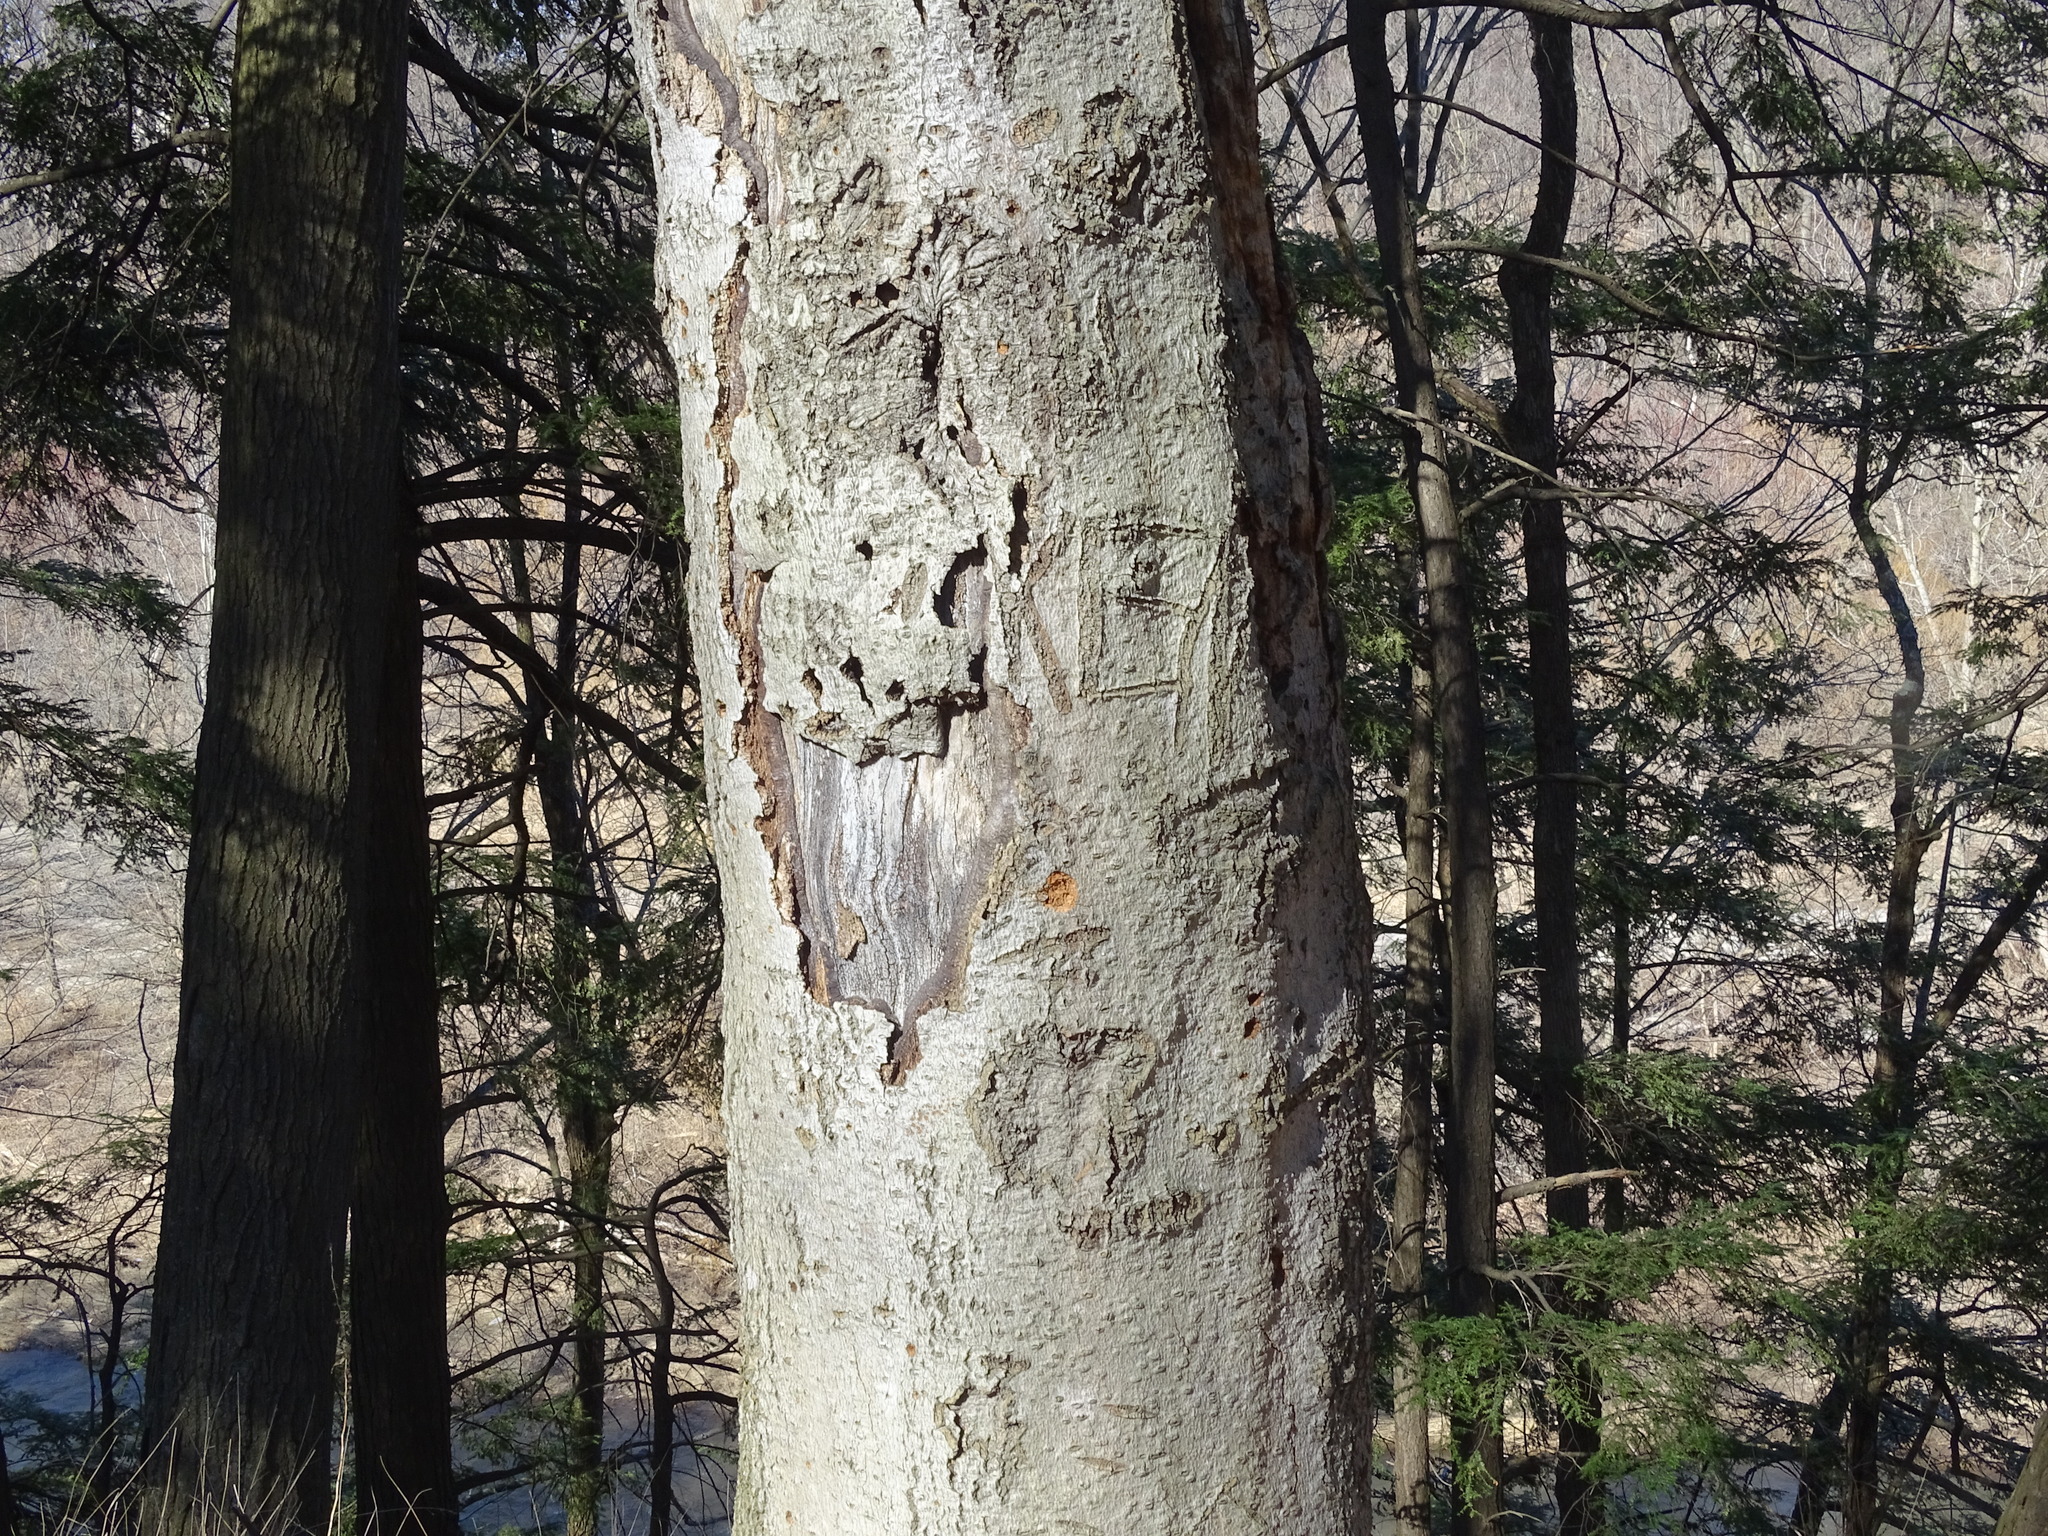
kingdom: Plantae
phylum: Tracheophyta
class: Magnoliopsida
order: Fagales
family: Fagaceae
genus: Fagus
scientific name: Fagus grandifolia
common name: American beech
